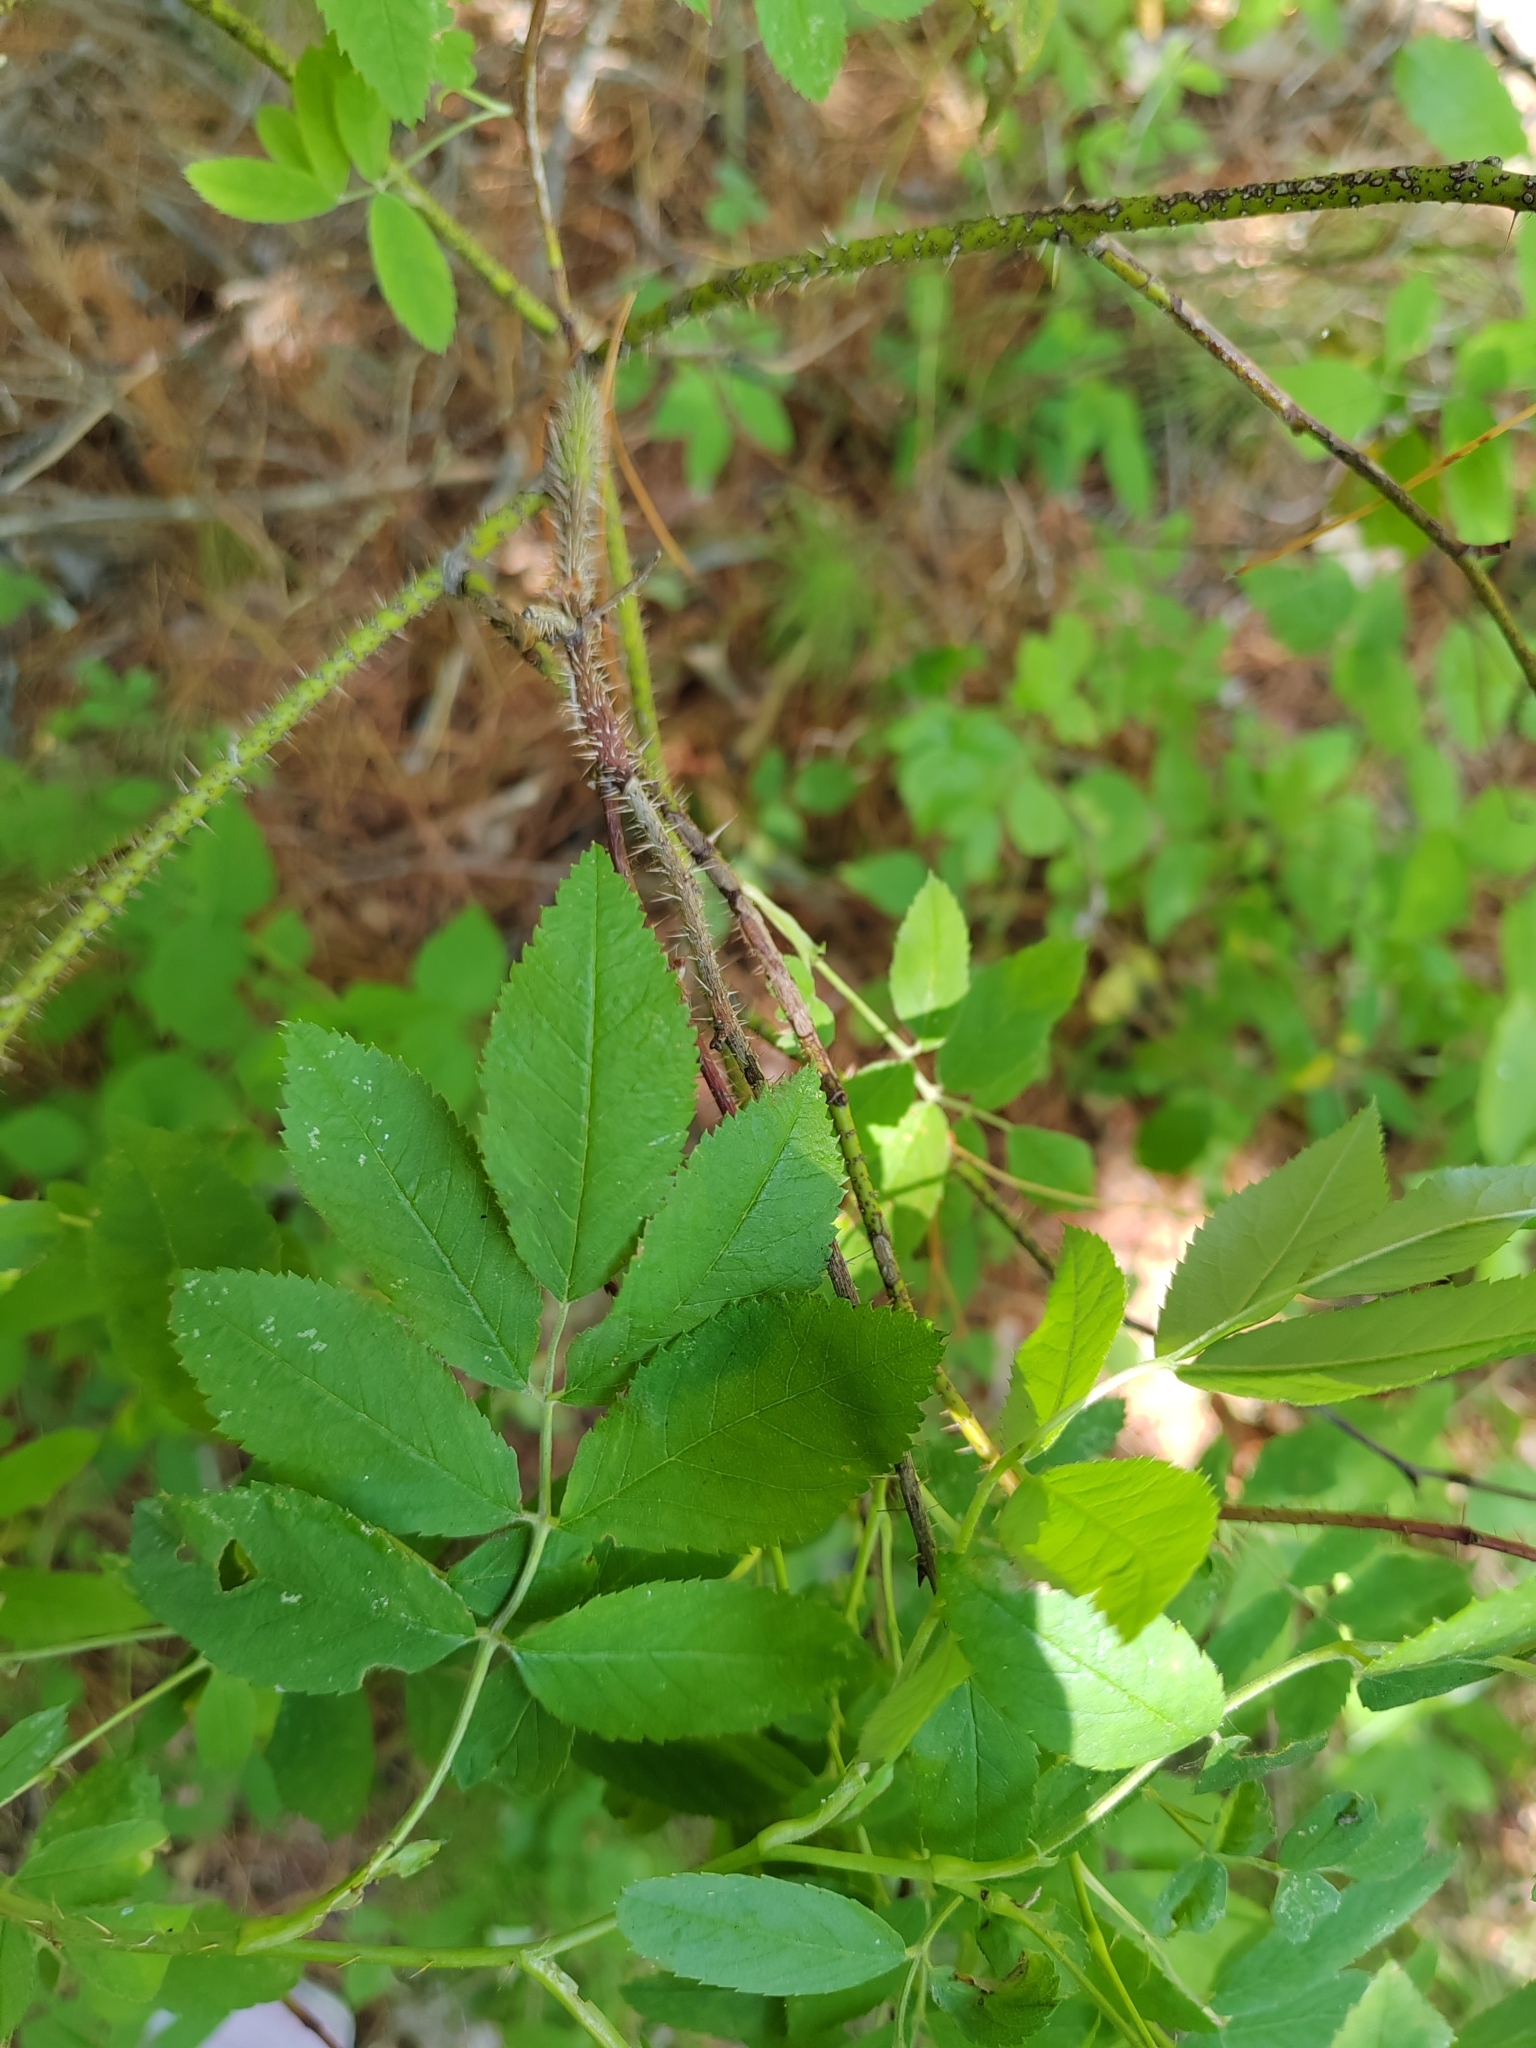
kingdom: Plantae
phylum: Tracheophyta
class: Magnoliopsida
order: Rosales
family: Rosaceae
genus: Rosa
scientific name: Rosa acicularis
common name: Prickly rose
